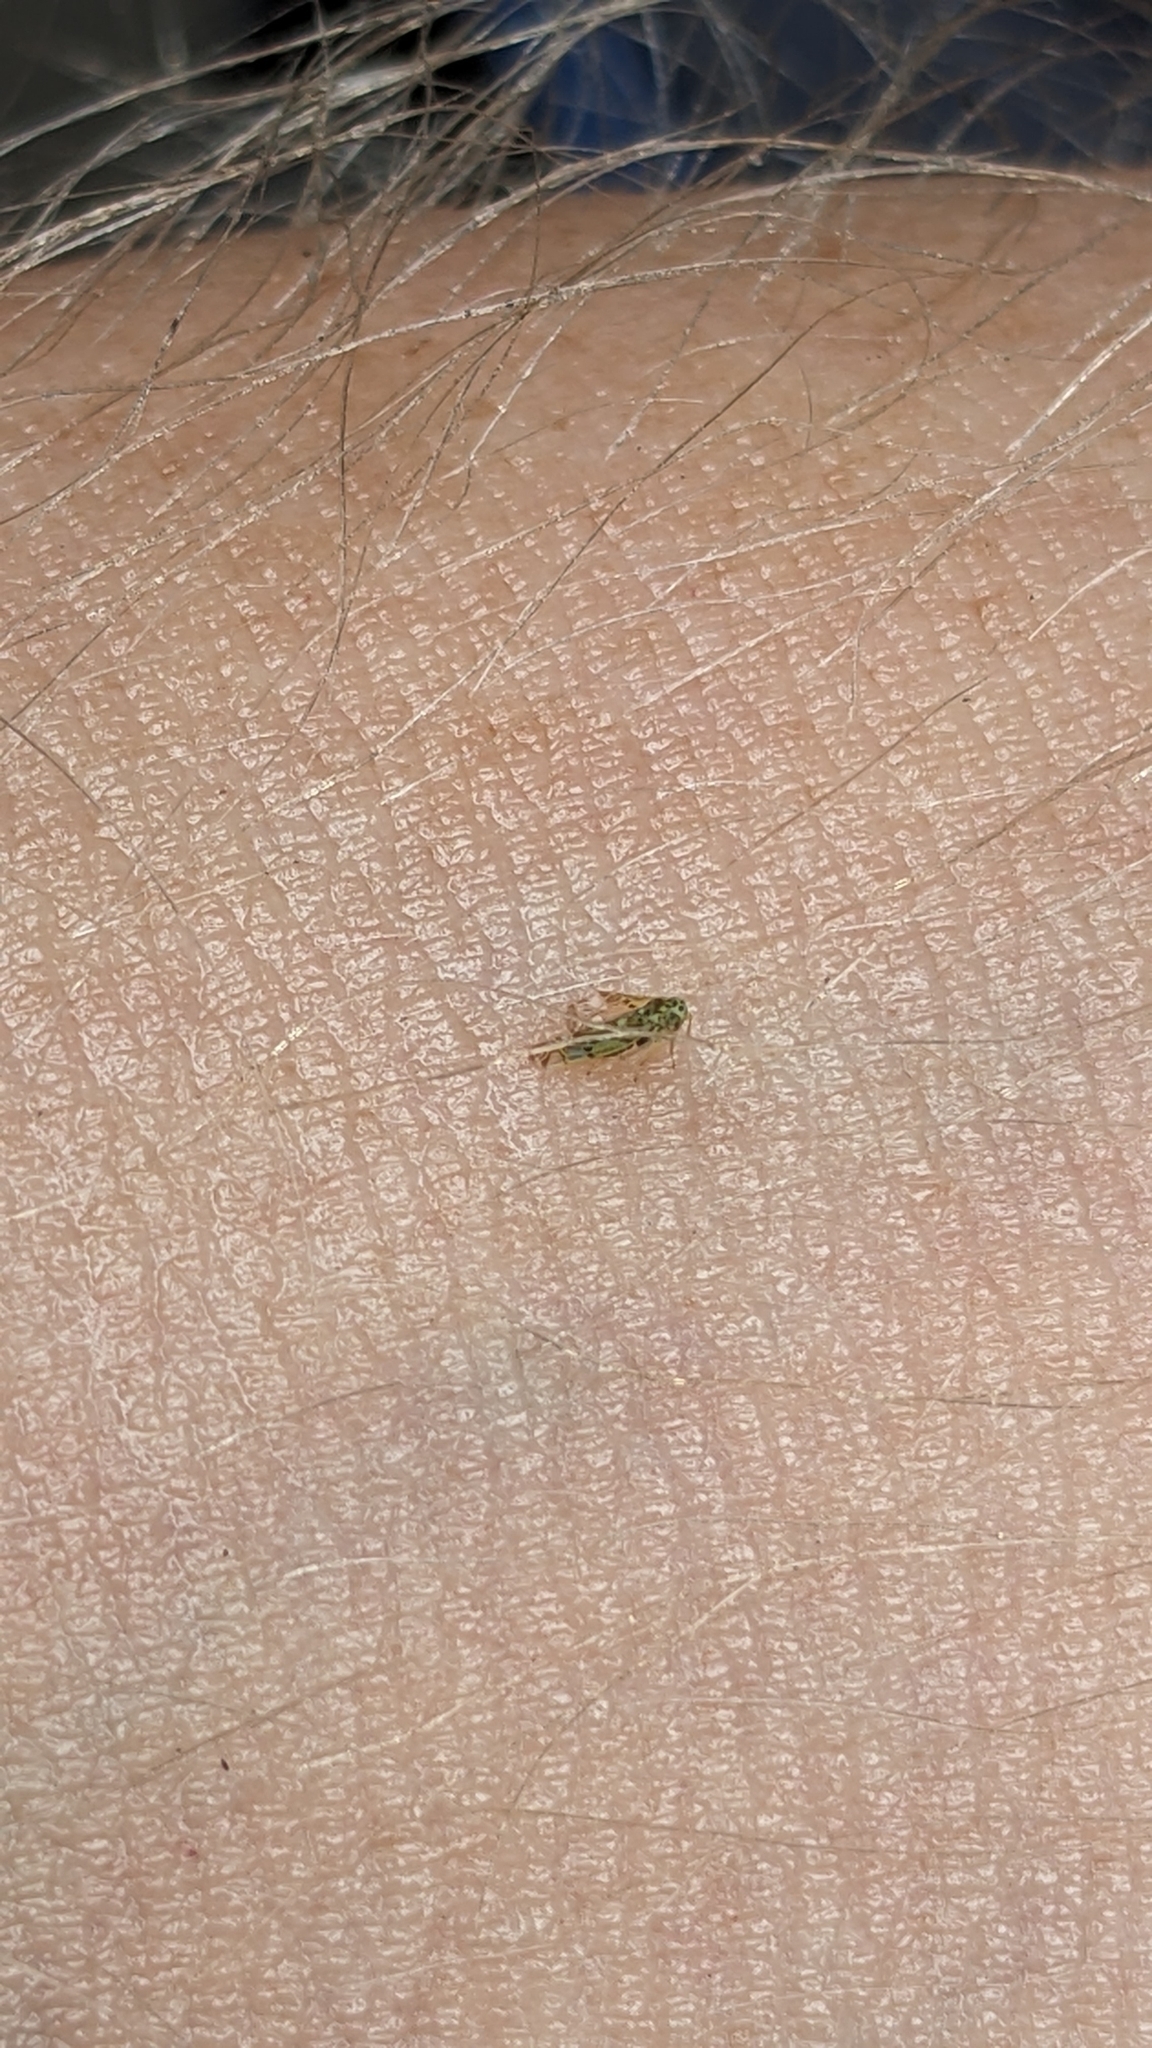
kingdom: Animalia
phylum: Arthropoda
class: Insecta
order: Hemiptera
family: Cicadellidae
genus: Eupteryx
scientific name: Eupteryx melissae
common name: Herb leafhopper
